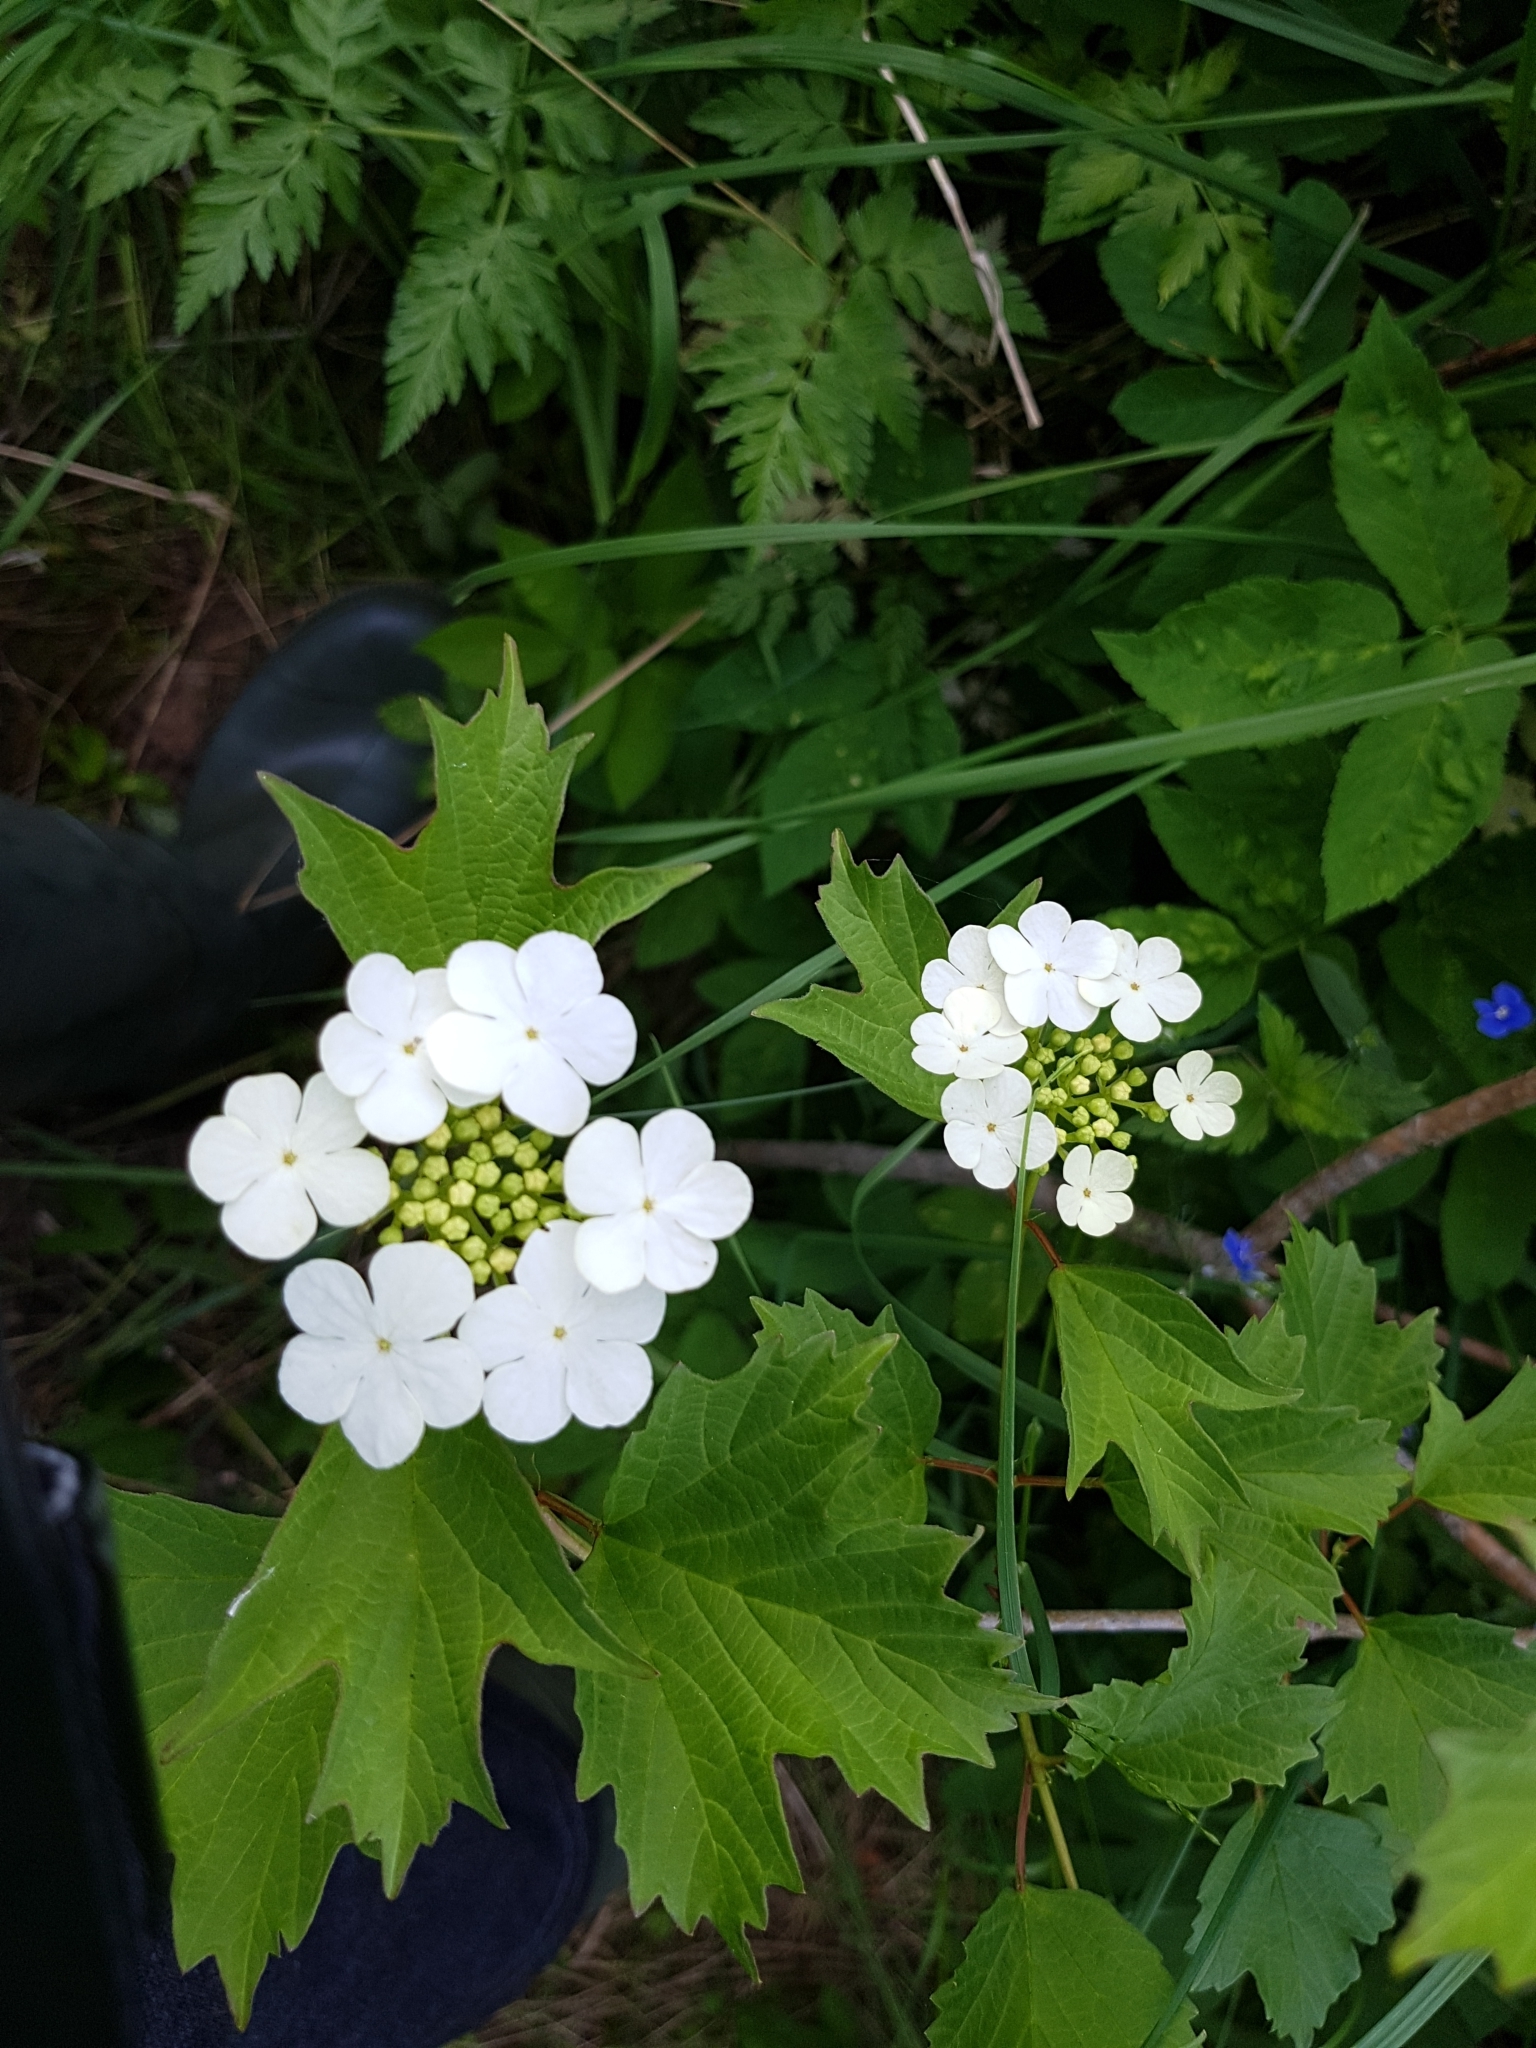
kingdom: Plantae
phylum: Tracheophyta
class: Magnoliopsida
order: Dipsacales
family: Viburnaceae
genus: Viburnum
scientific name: Viburnum opulus
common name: Guelder-rose
